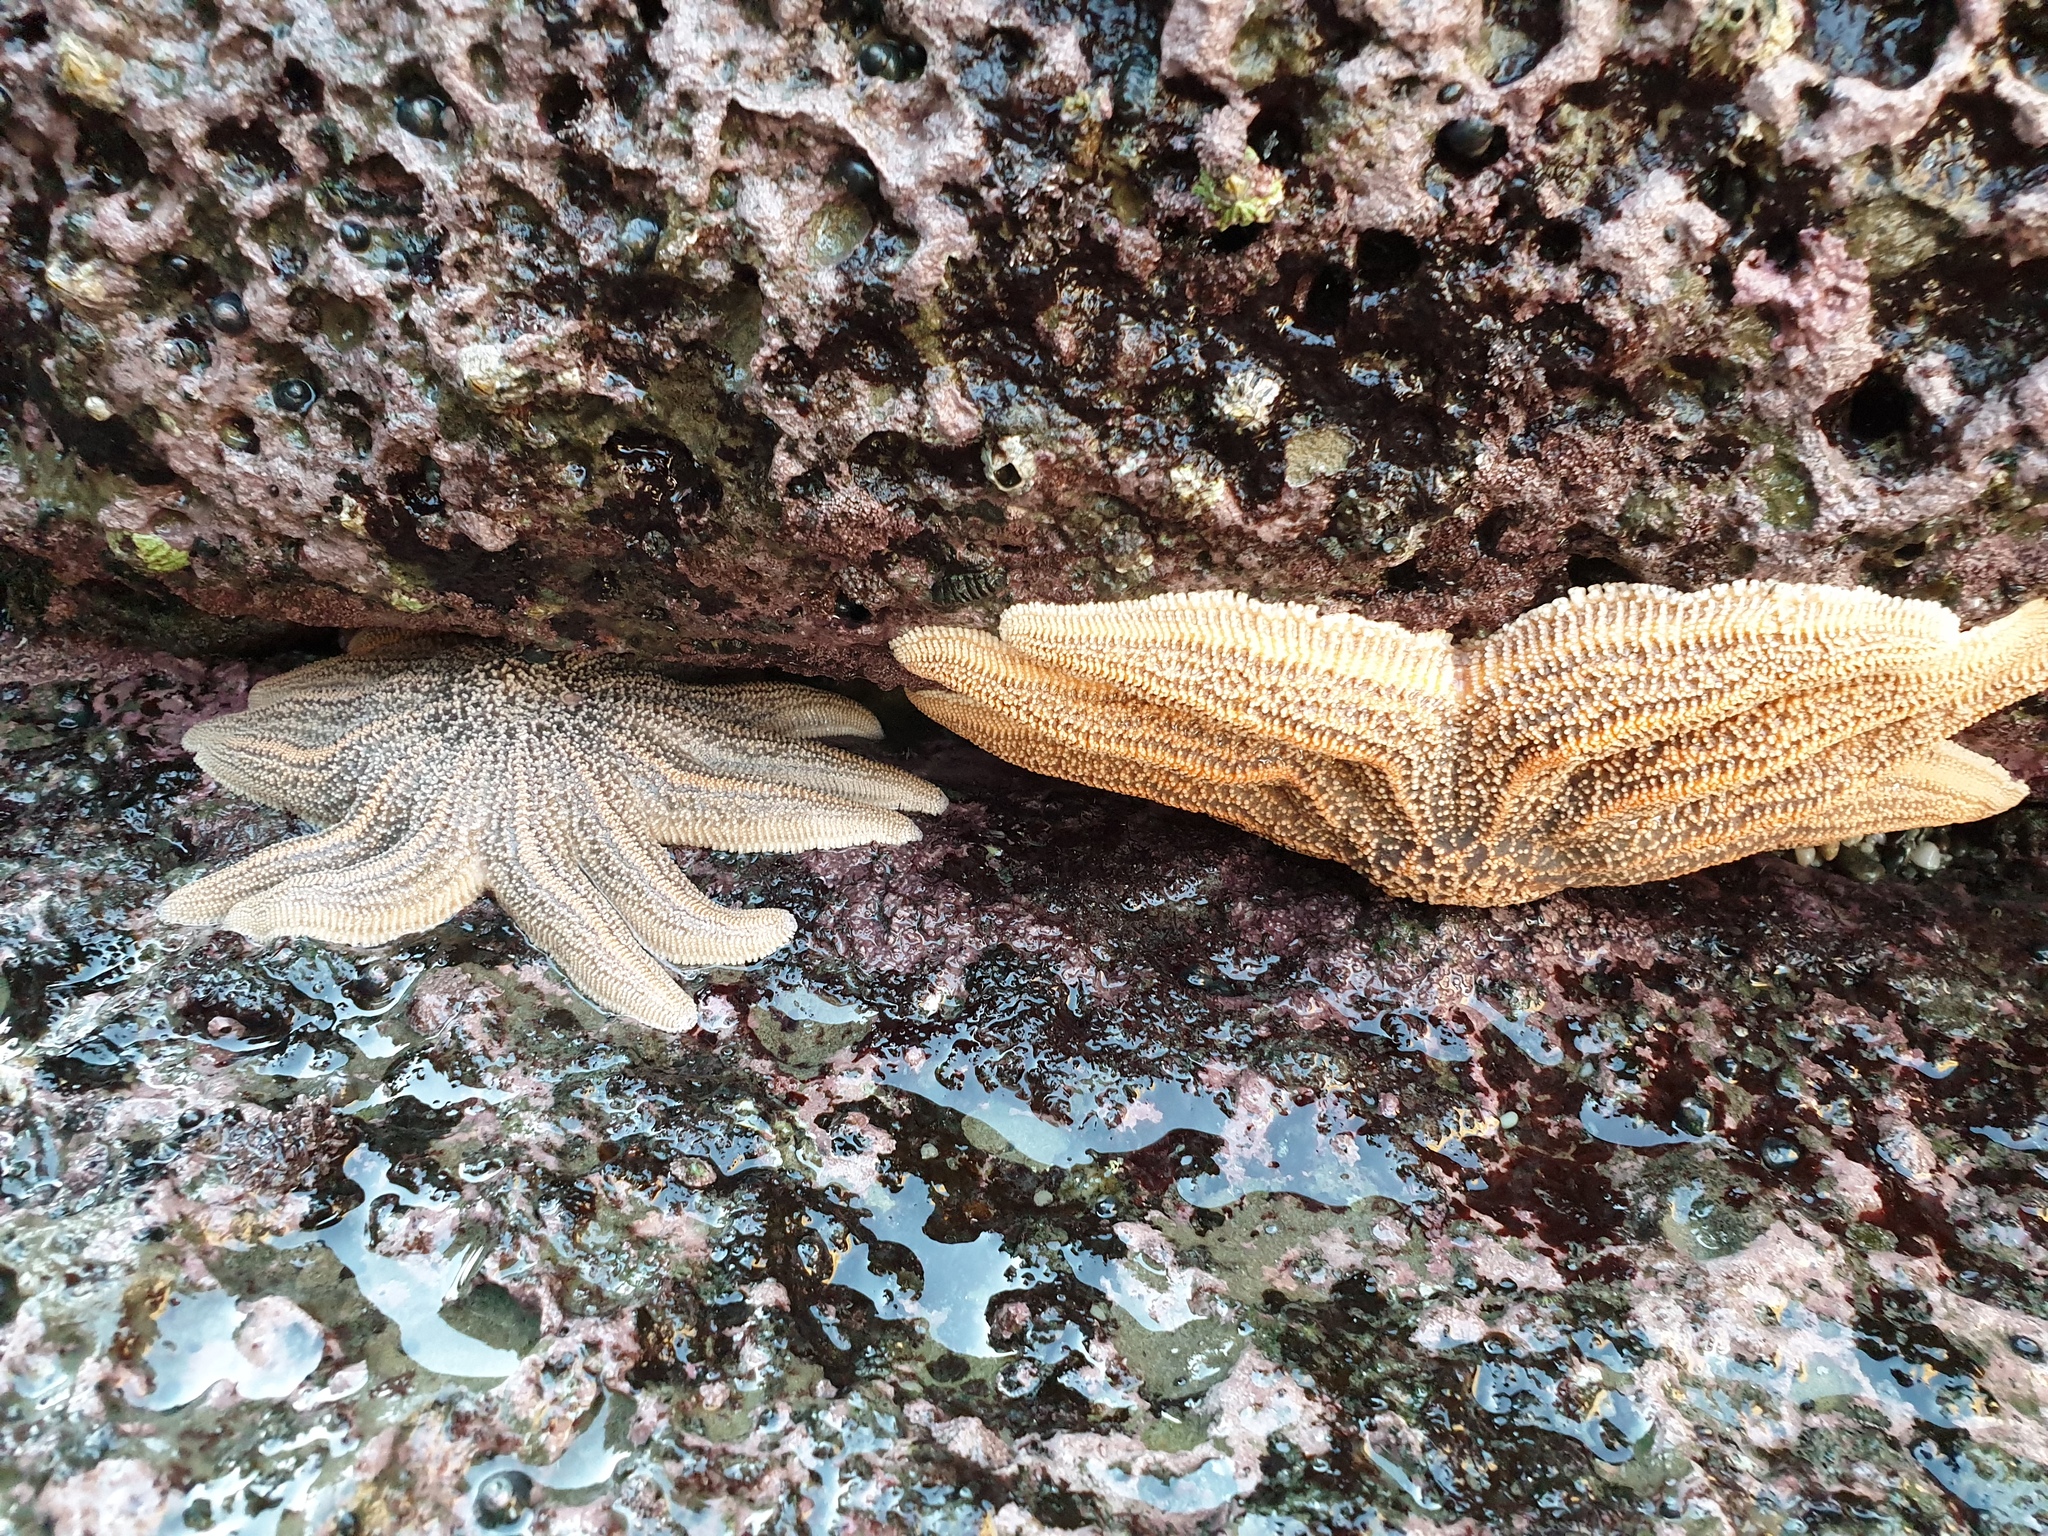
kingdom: Animalia
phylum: Echinodermata
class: Asteroidea
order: Forcipulatida
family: Stichasteridae
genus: Stichaster
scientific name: Stichaster australis
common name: Reef starfish
